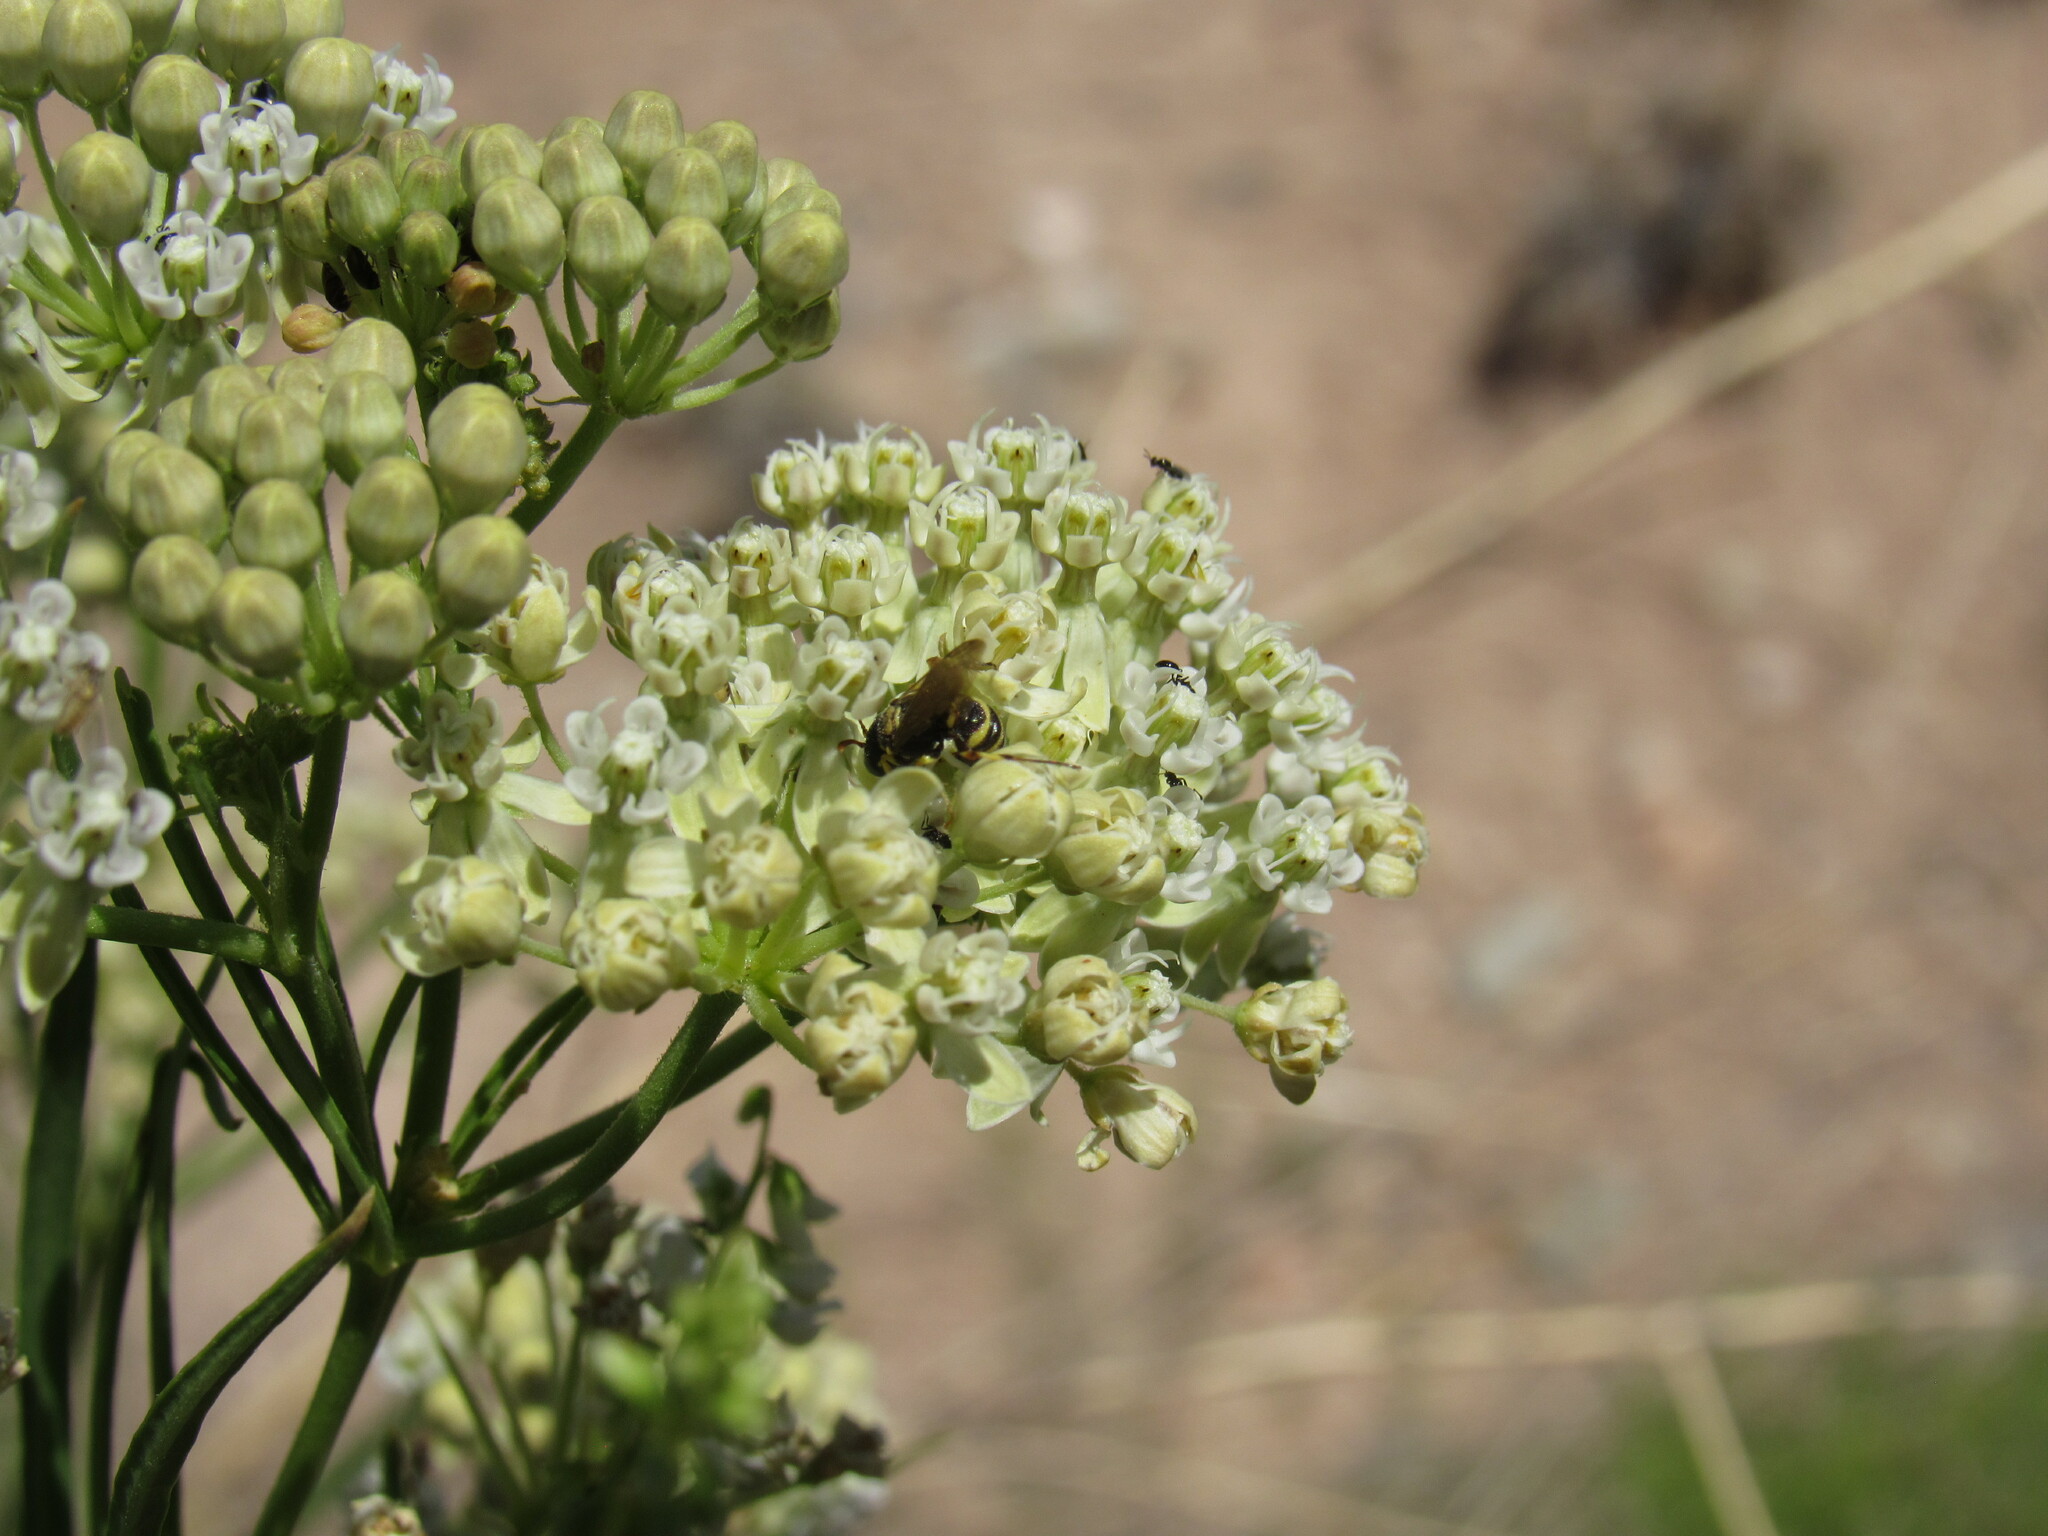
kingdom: Plantae
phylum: Tracheophyta
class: Magnoliopsida
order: Gentianales
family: Apocynaceae
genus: Asclepias
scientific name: Asclepias subverticillata
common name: Horsetail milkweed
